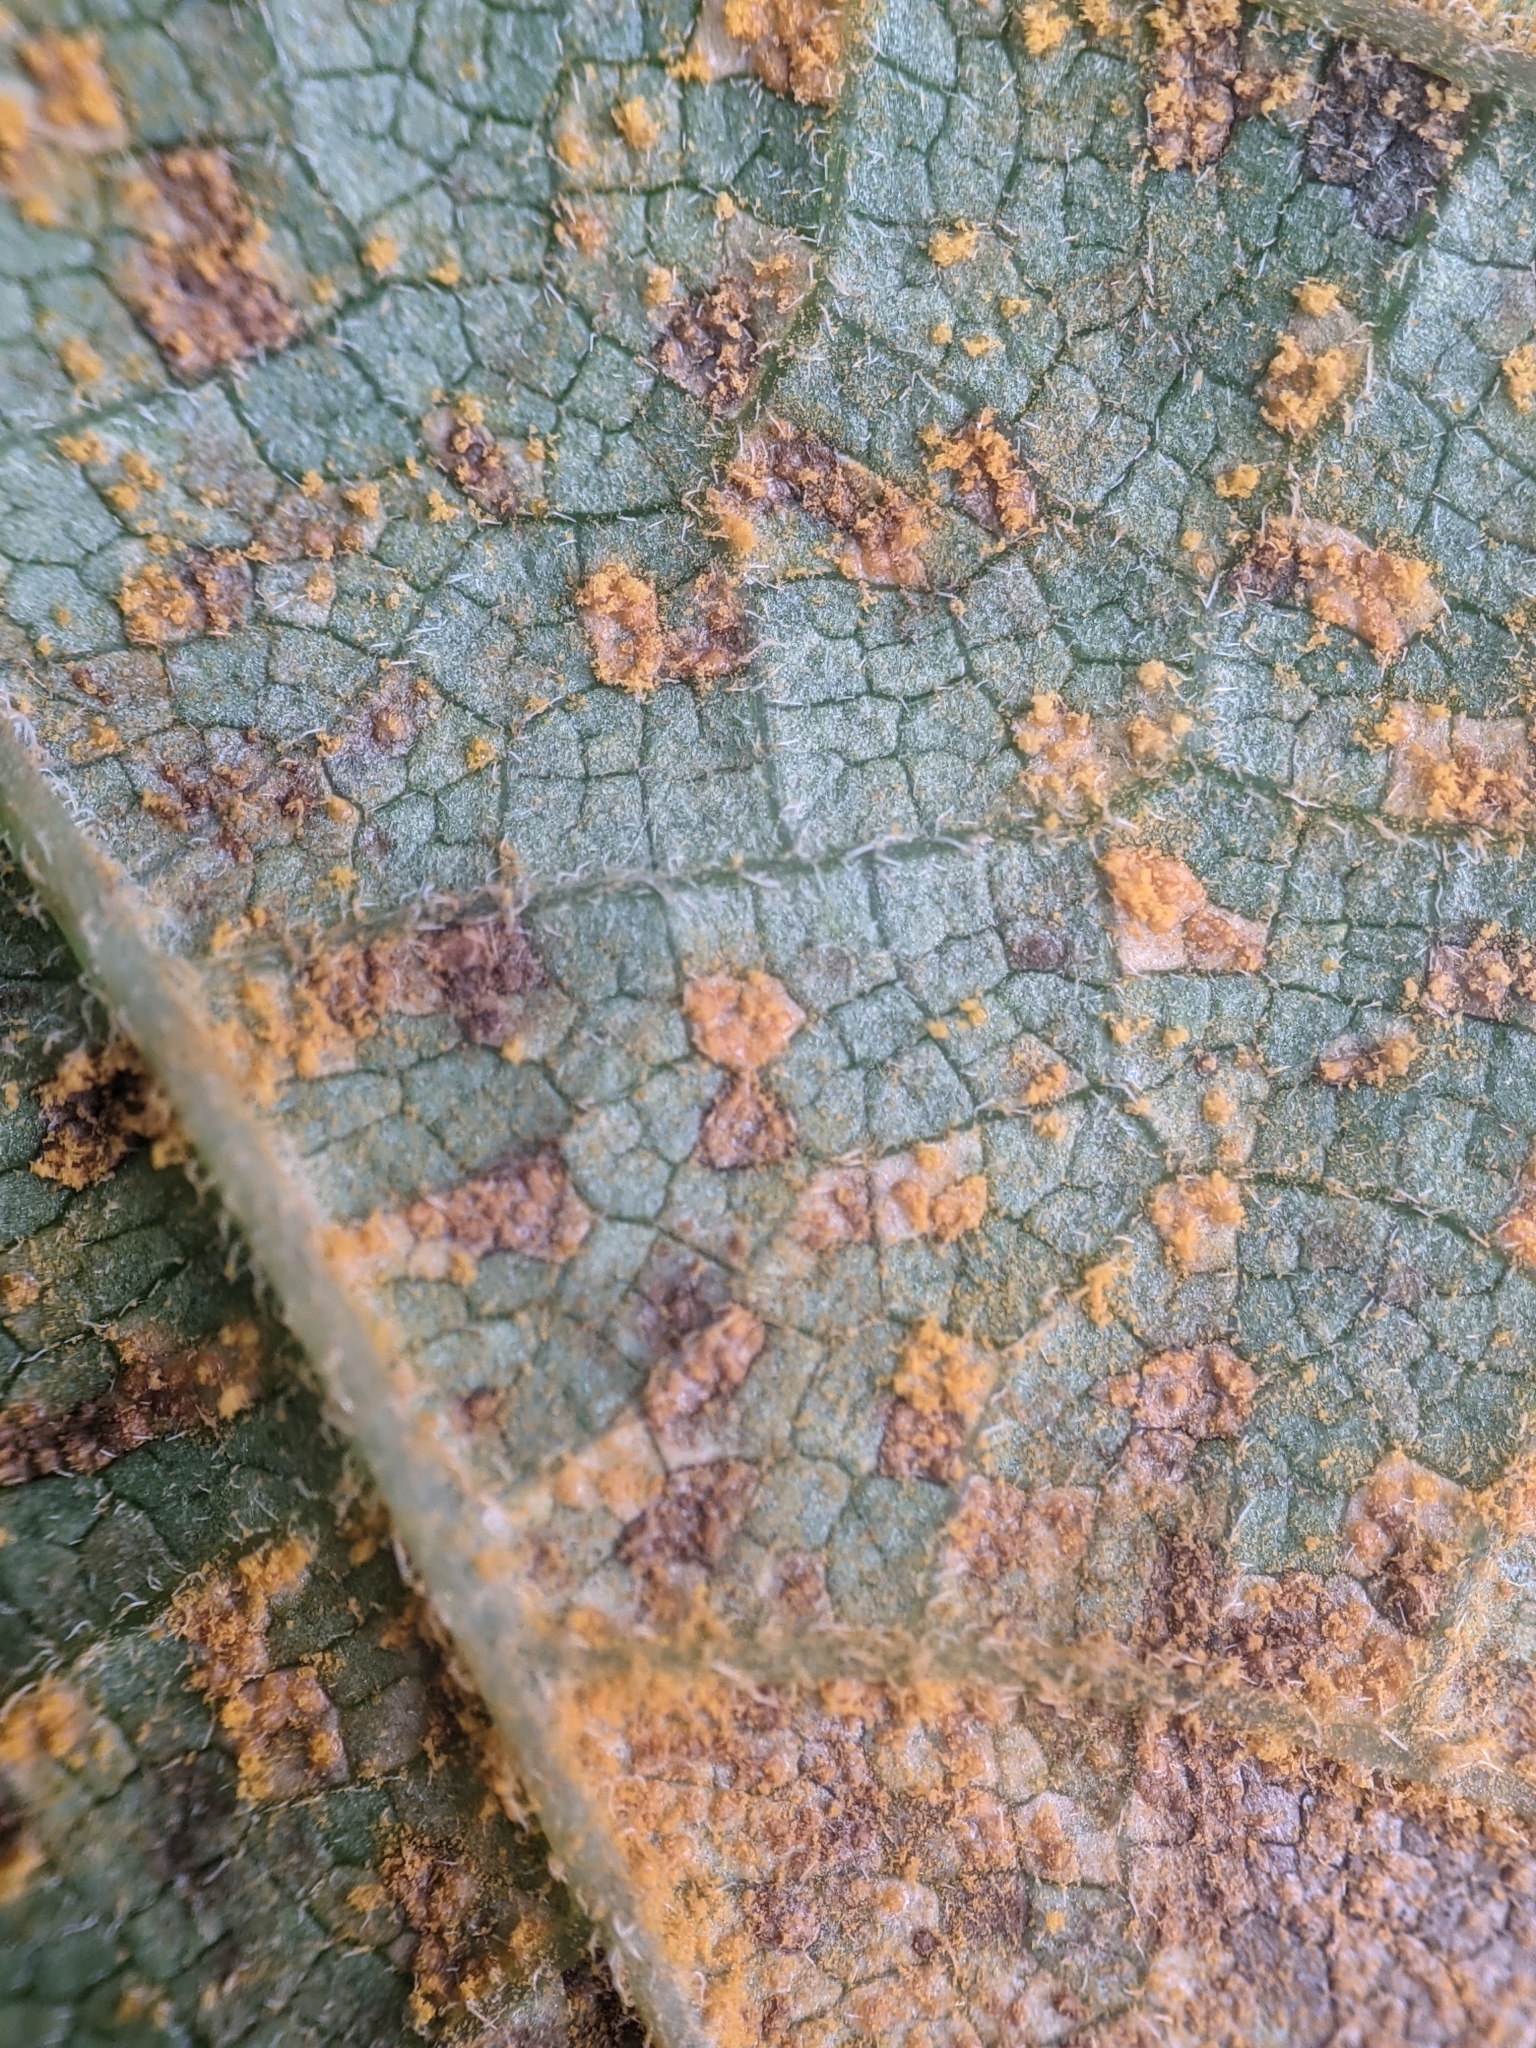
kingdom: Fungi
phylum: Basidiomycota
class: Pucciniomycetes
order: Pucciniales
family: Pucciniastraceae
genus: Pucciniastrum
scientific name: Pucciniastrum hydrangeae
